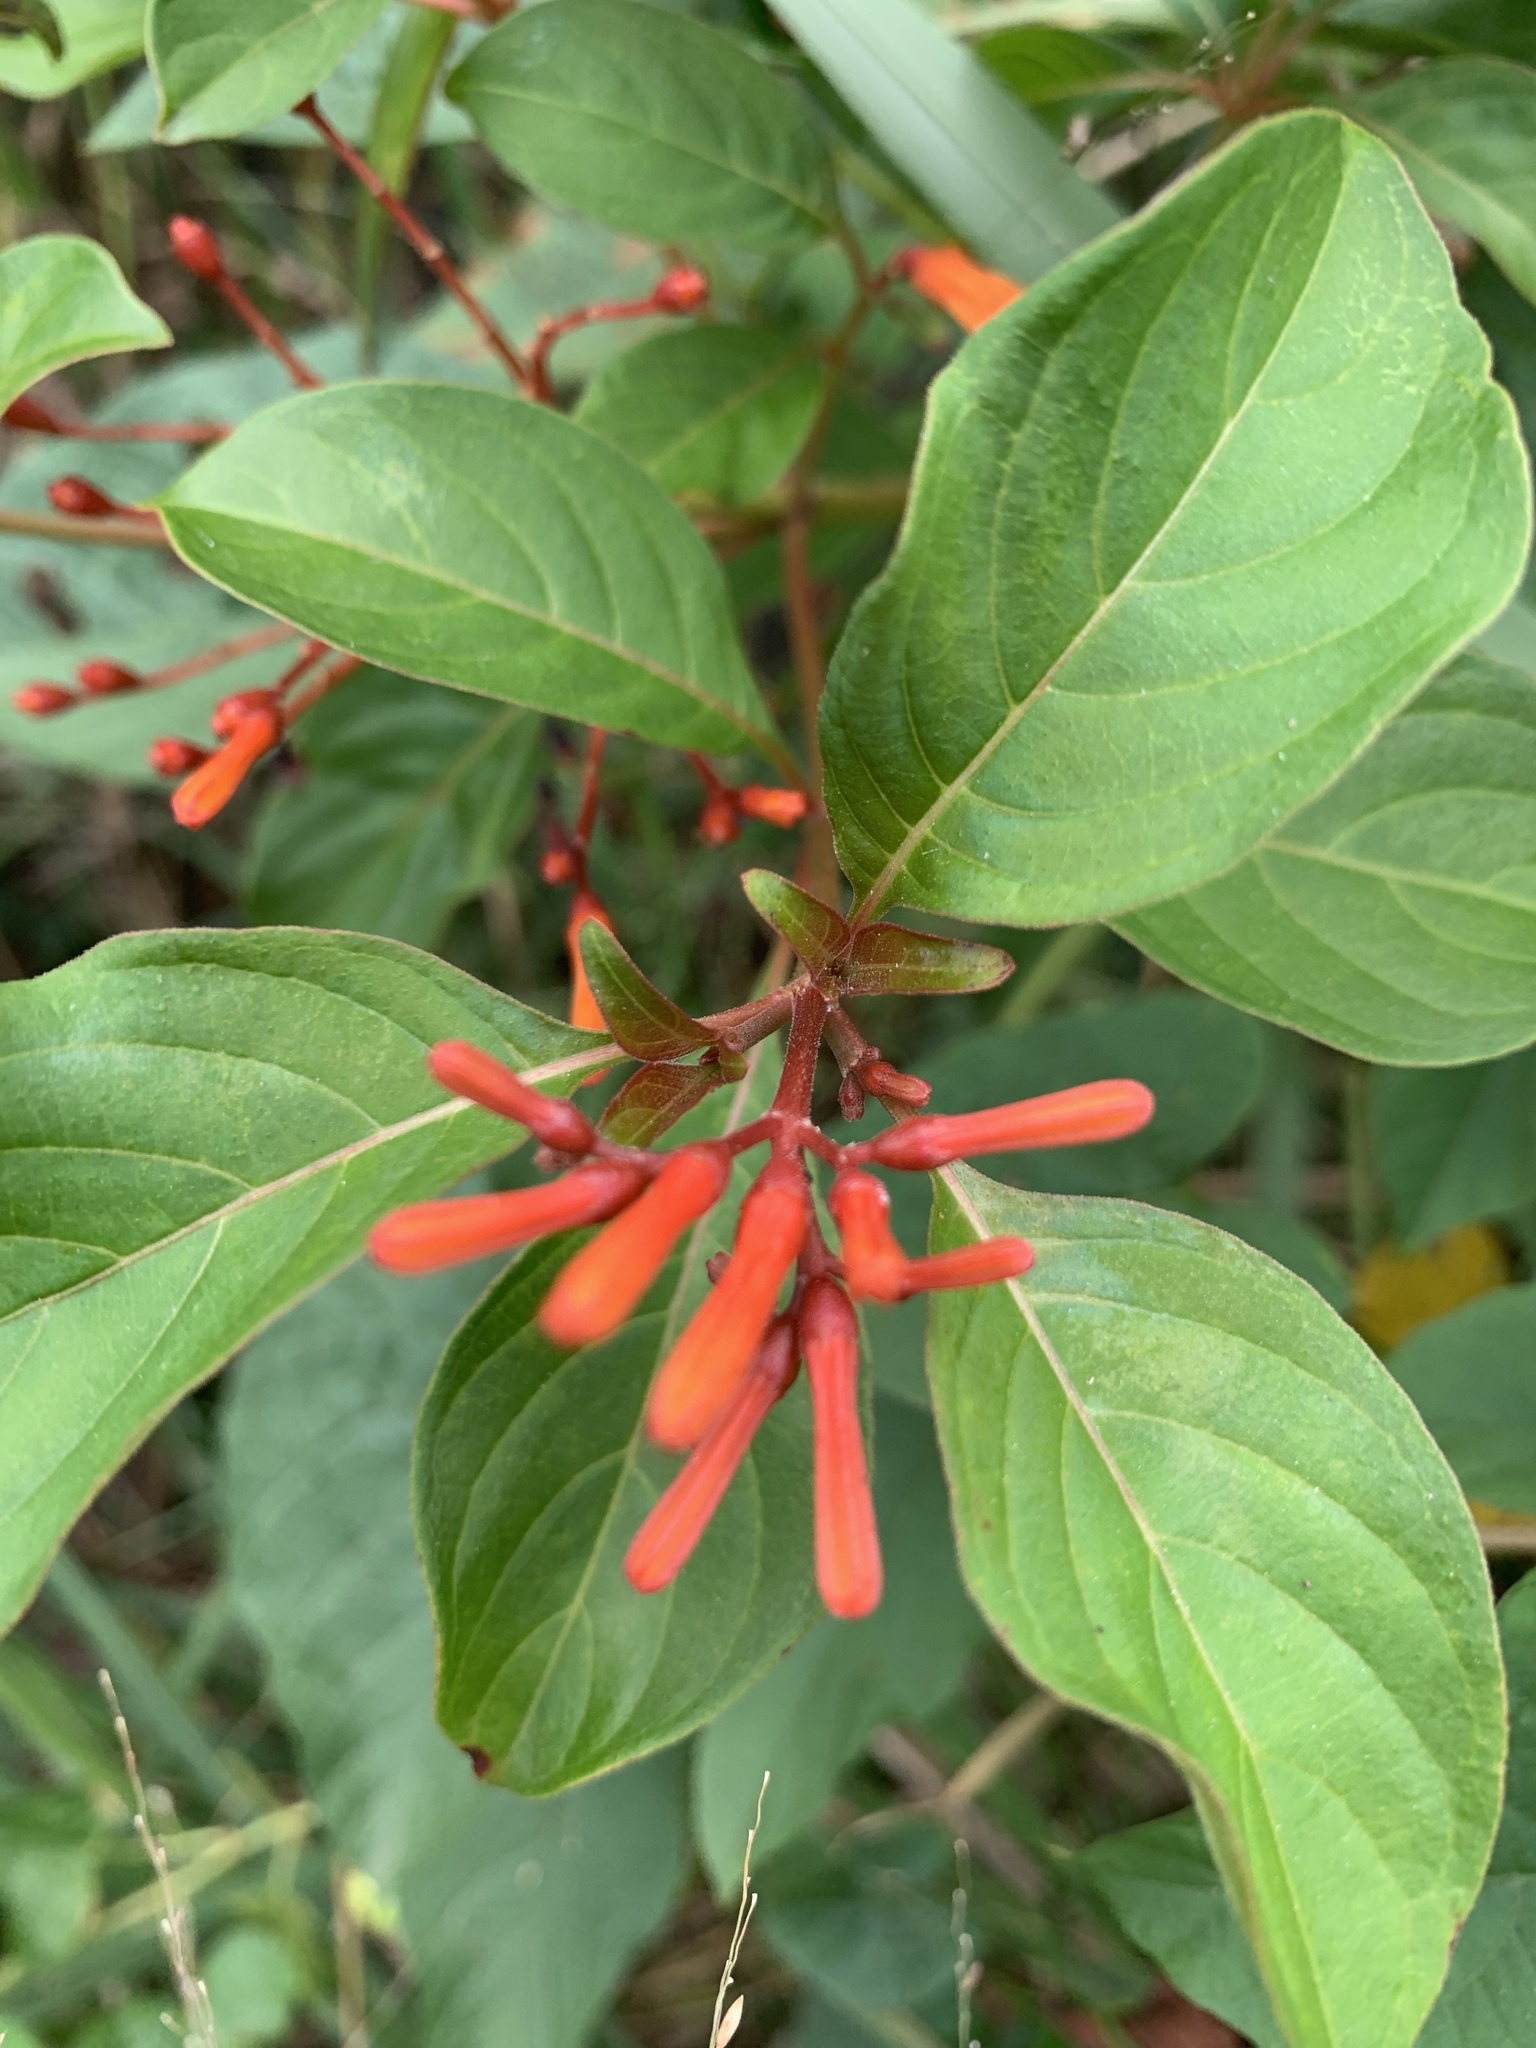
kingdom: Plantae
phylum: Tracheophyta
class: Magnoliopsida
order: Gentianales
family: Rubiaceae
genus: Hamelia
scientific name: Hamelia patens
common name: Redhead
